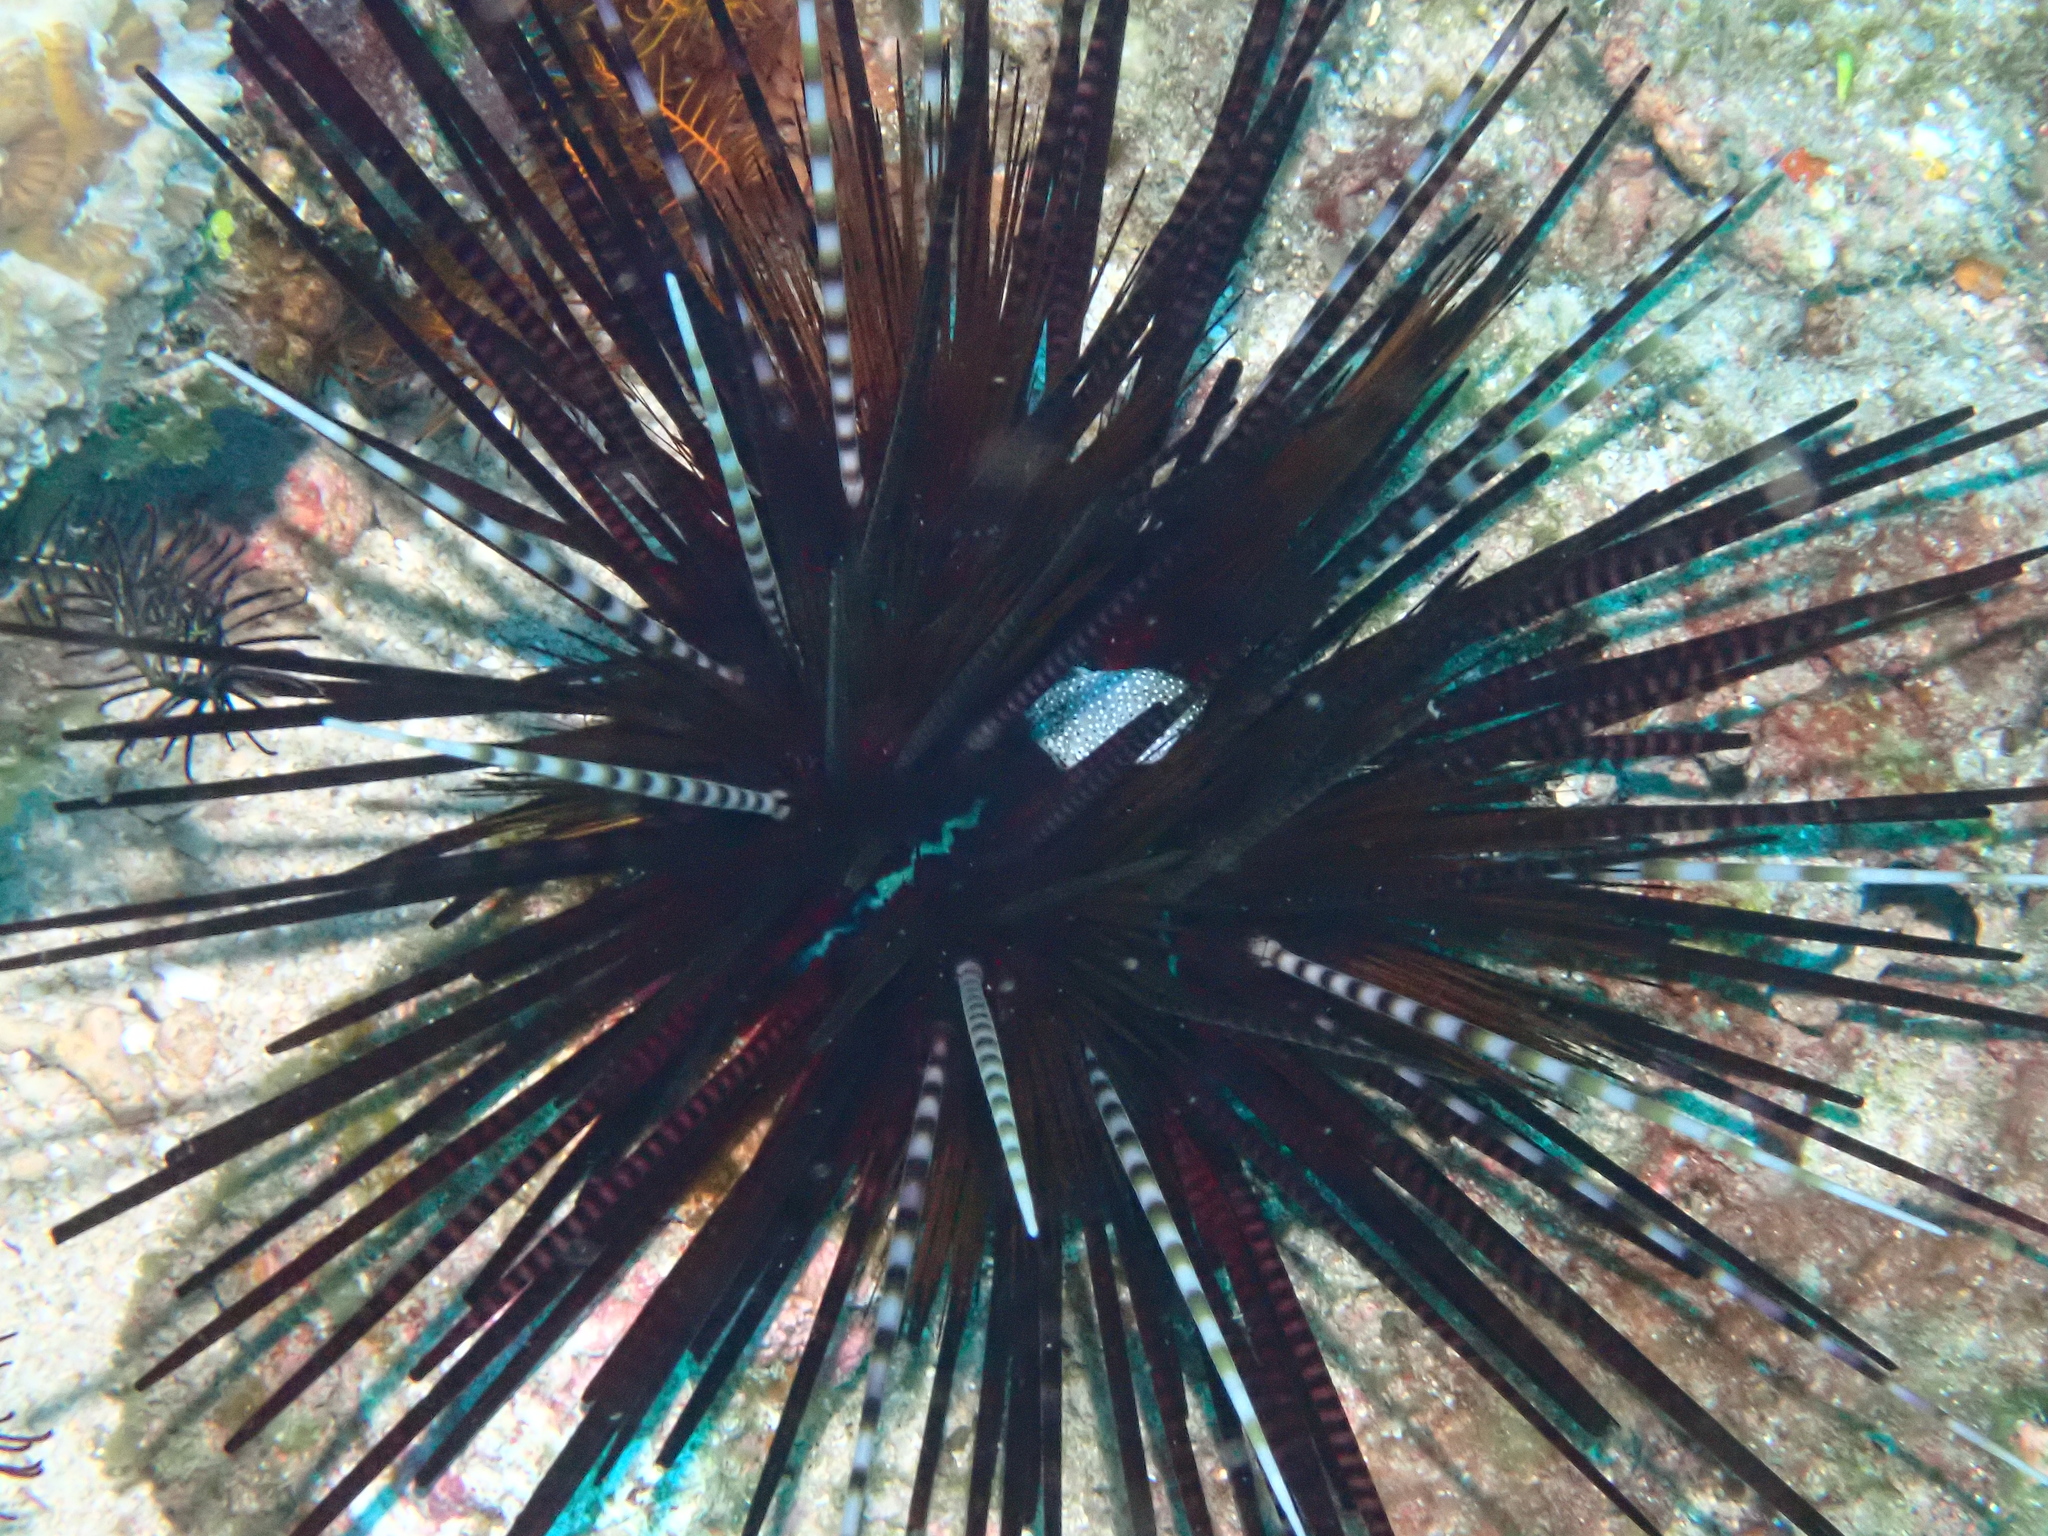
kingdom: Animalia
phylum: Echinodermata
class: Echinoidea
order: Diadematoida
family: Diadematidae
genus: Echinothrix
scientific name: Echinothrix calamaris
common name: Banded sea urchin
